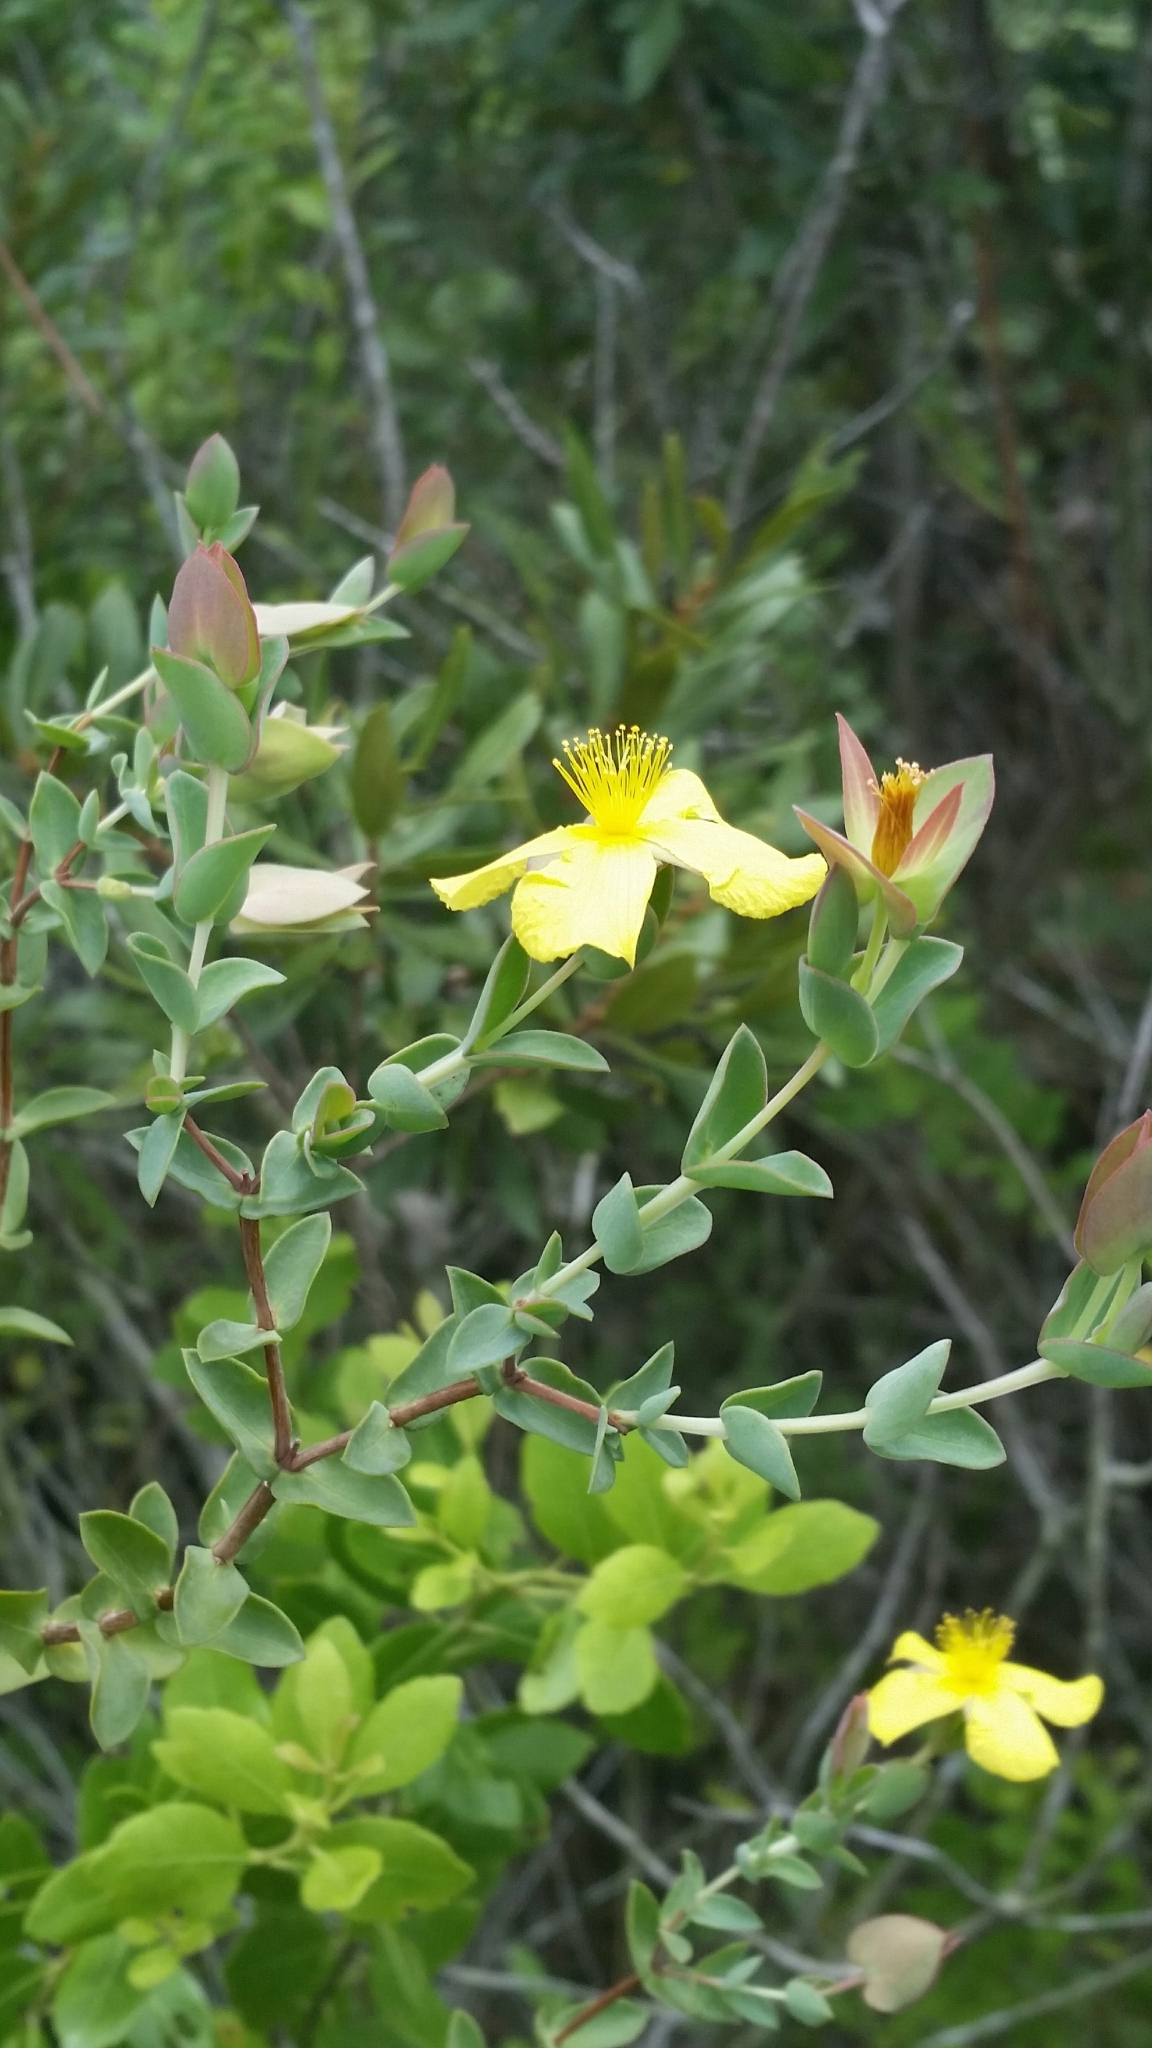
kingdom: Plantae
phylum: Tracheophyta
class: Magnoliopsida
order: Malpighiales
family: Hypericaceae
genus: Hypericum
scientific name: Hypericum tetrapetalum
